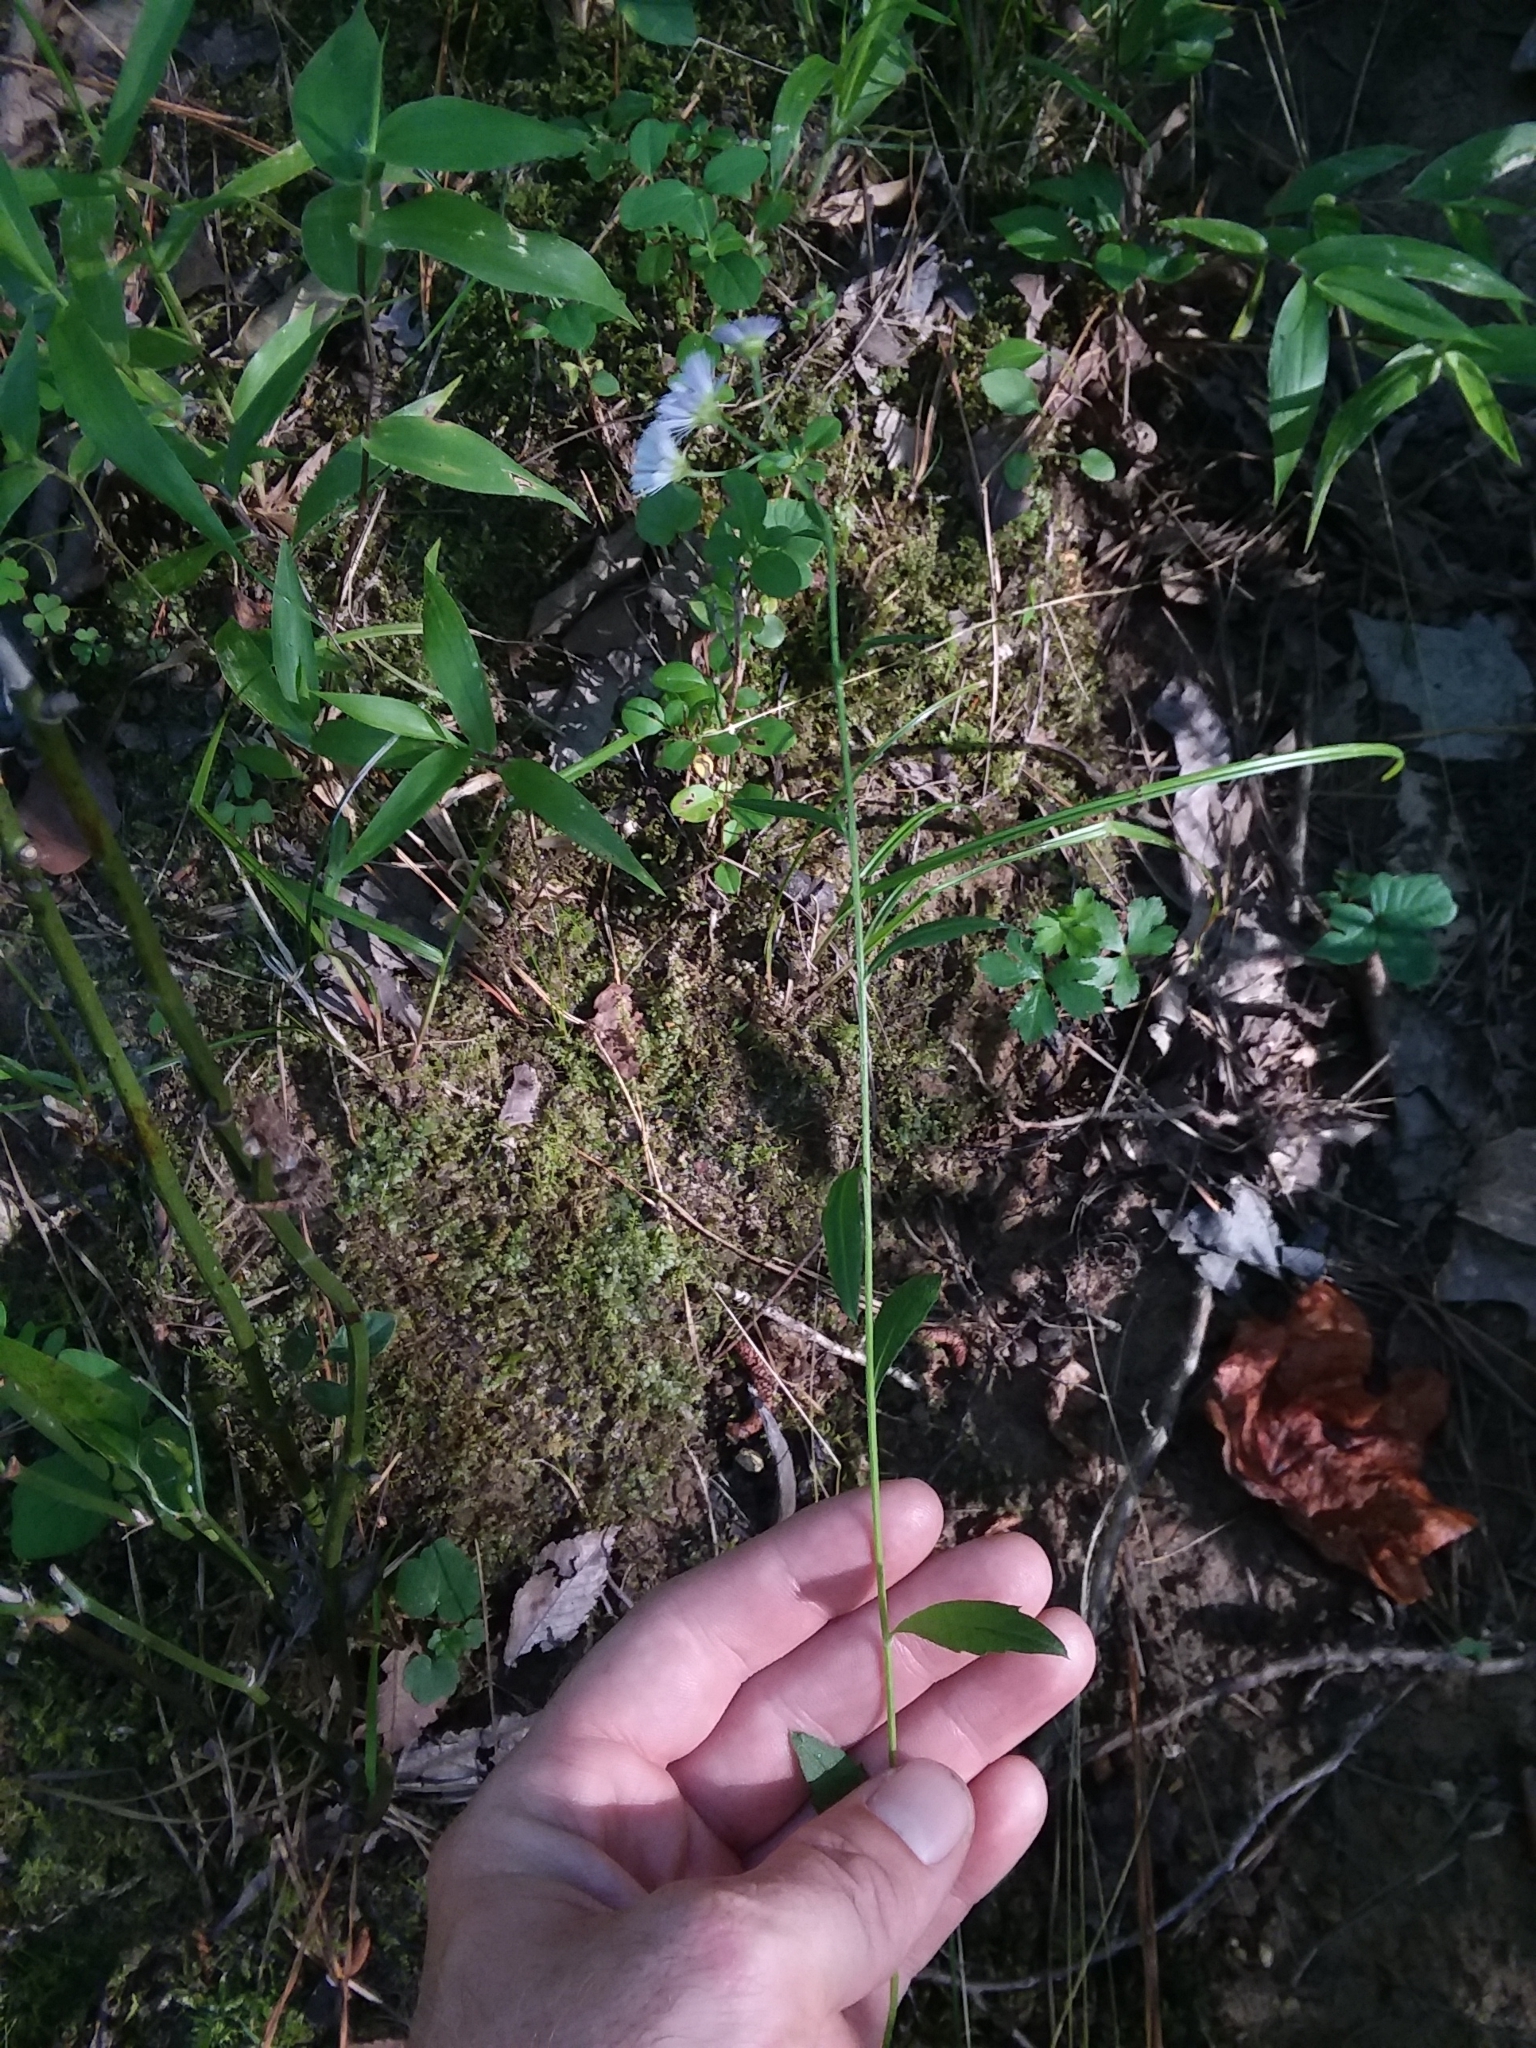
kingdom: Plantae
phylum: Tracheophyta
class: Magnoliopsida
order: Asterales
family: Asteraceae
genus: Erigeron
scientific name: Erigeron annuus
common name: Tall fleabane
